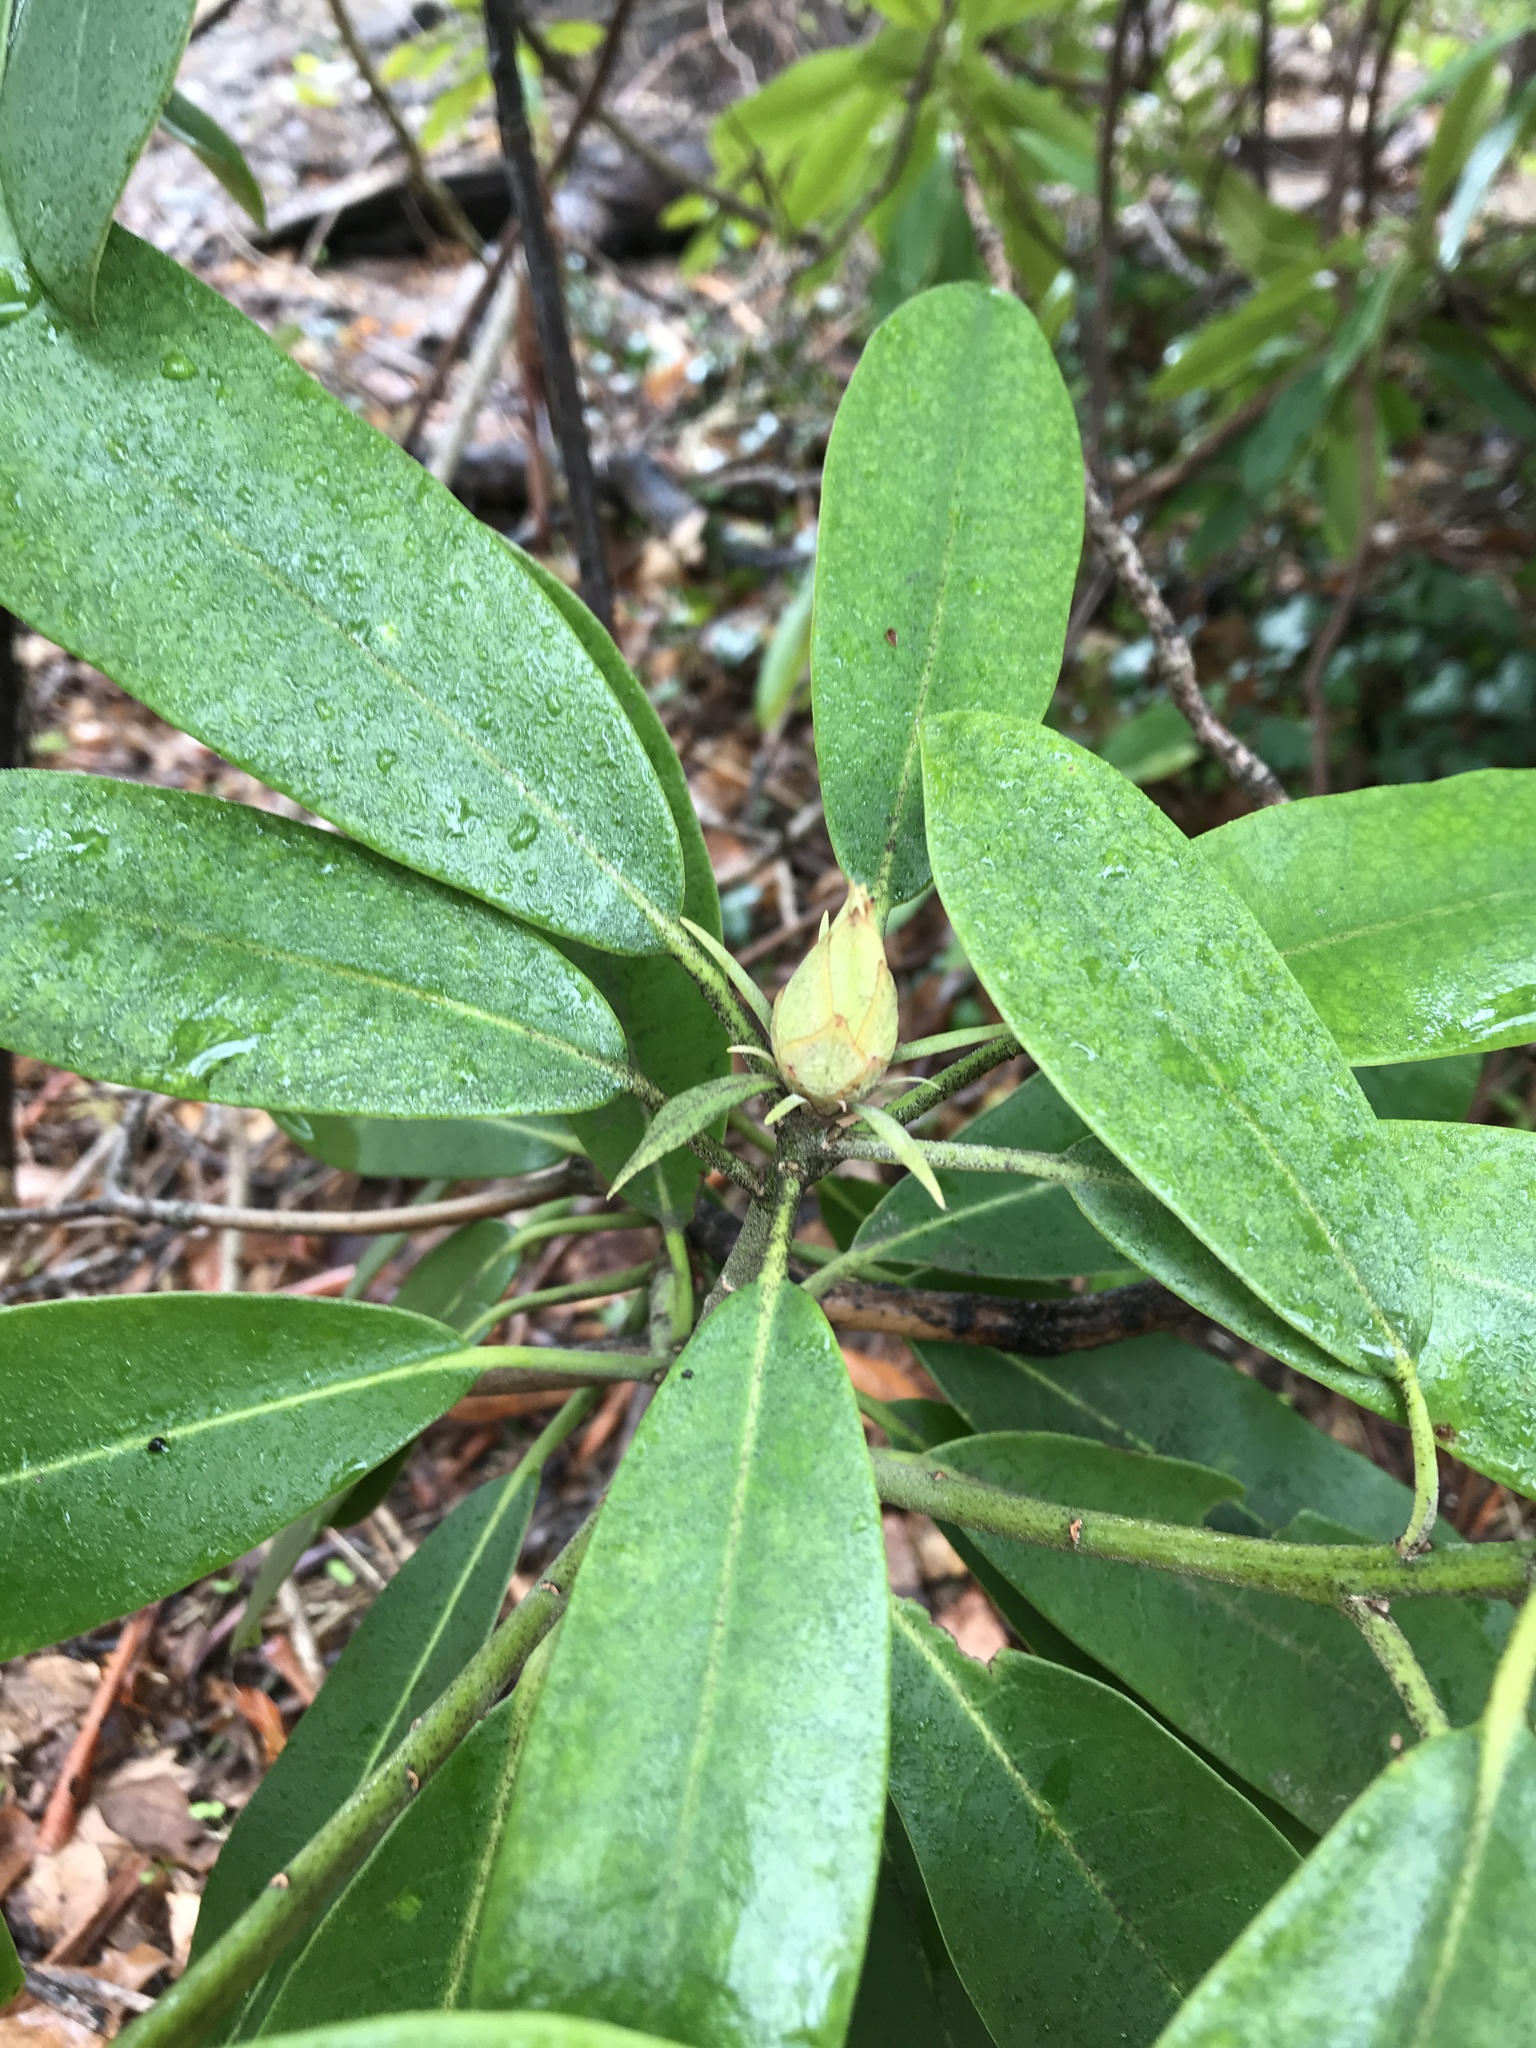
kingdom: Plantae
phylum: Tracheophyta
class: Magnoliopsida
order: Ericales
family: Ericaceae
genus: Rhododendron
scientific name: Rhododendron maximum
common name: Great rhododendron
